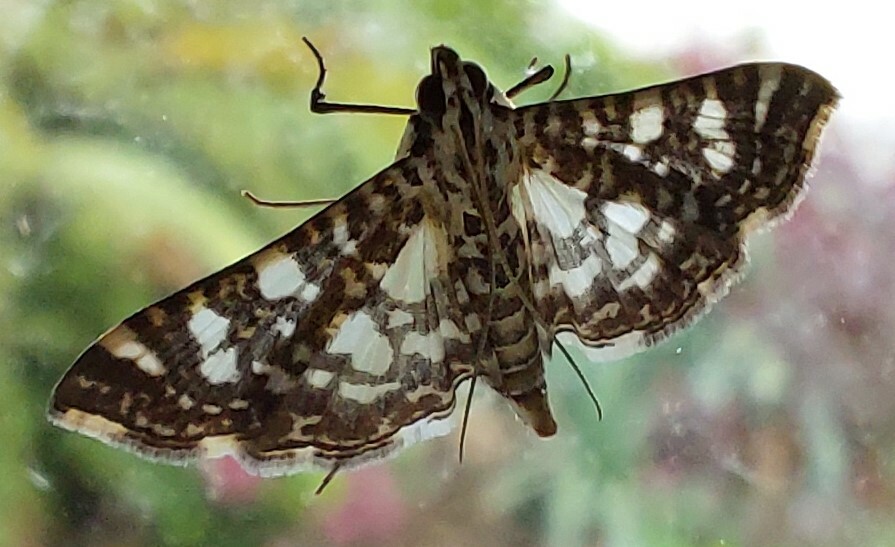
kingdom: Animalia
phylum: Arthropoda
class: Insecta
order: Lepidoptera
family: Crambidae
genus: Glyphodes
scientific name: Glyphodes onychinalis
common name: Swan plant moth
